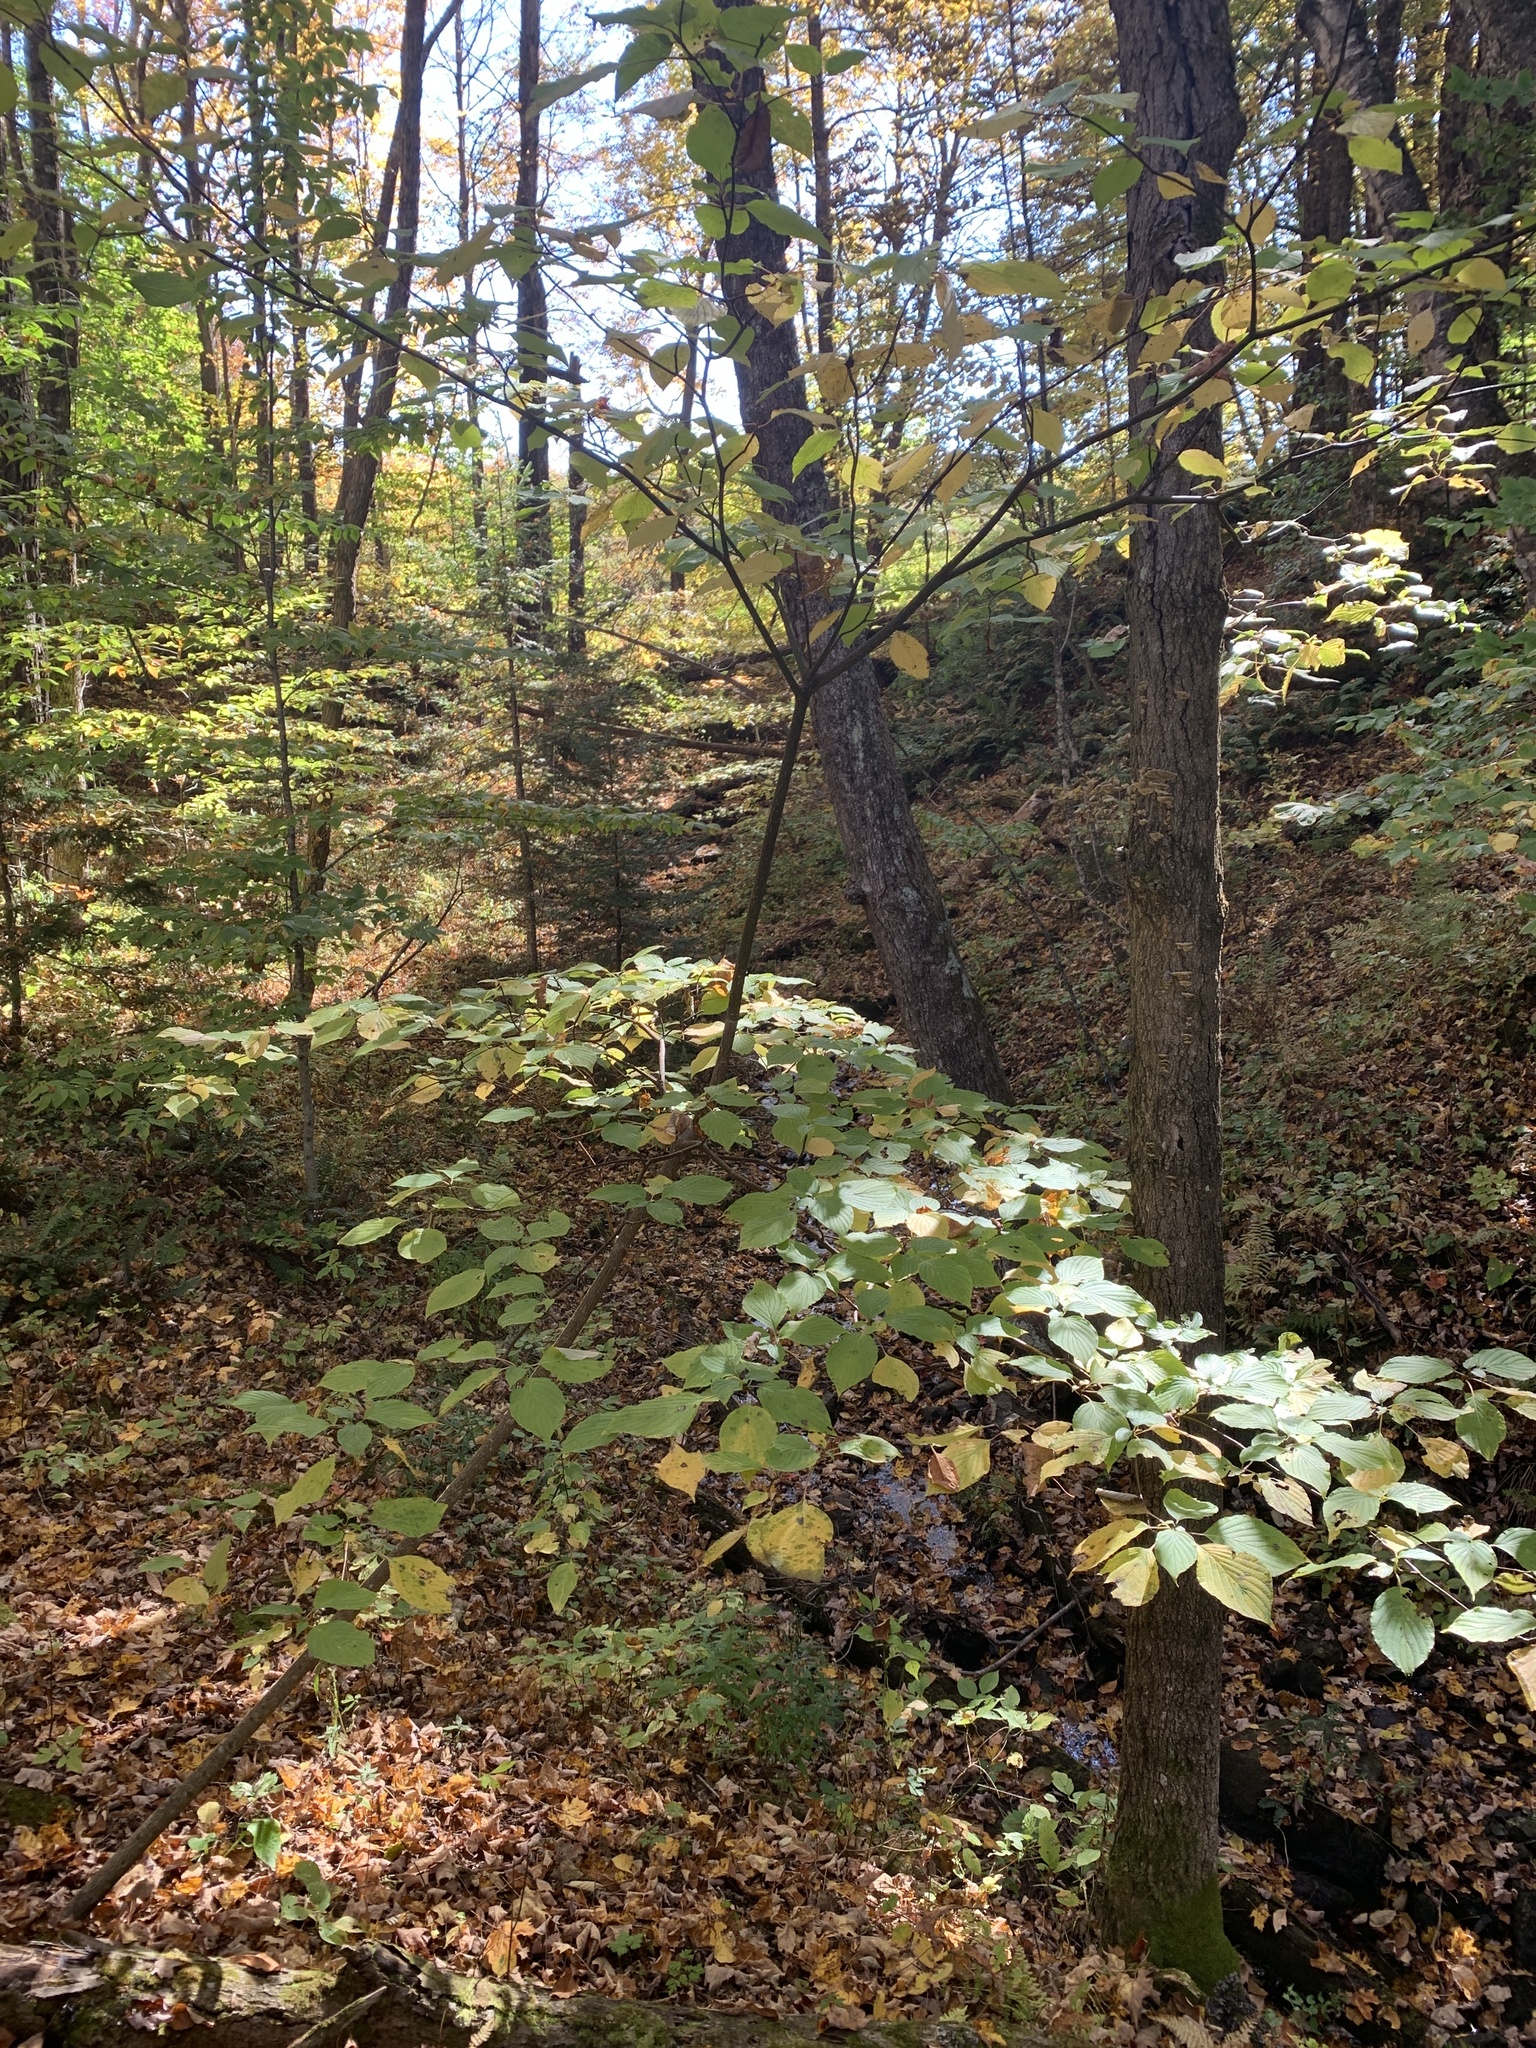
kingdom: Plantae
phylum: Tracheophyta
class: Magnoliopsida
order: Cornales
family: Cornaceae
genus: Cornus
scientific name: Cornus alternifolia
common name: Pagoda dogwood
